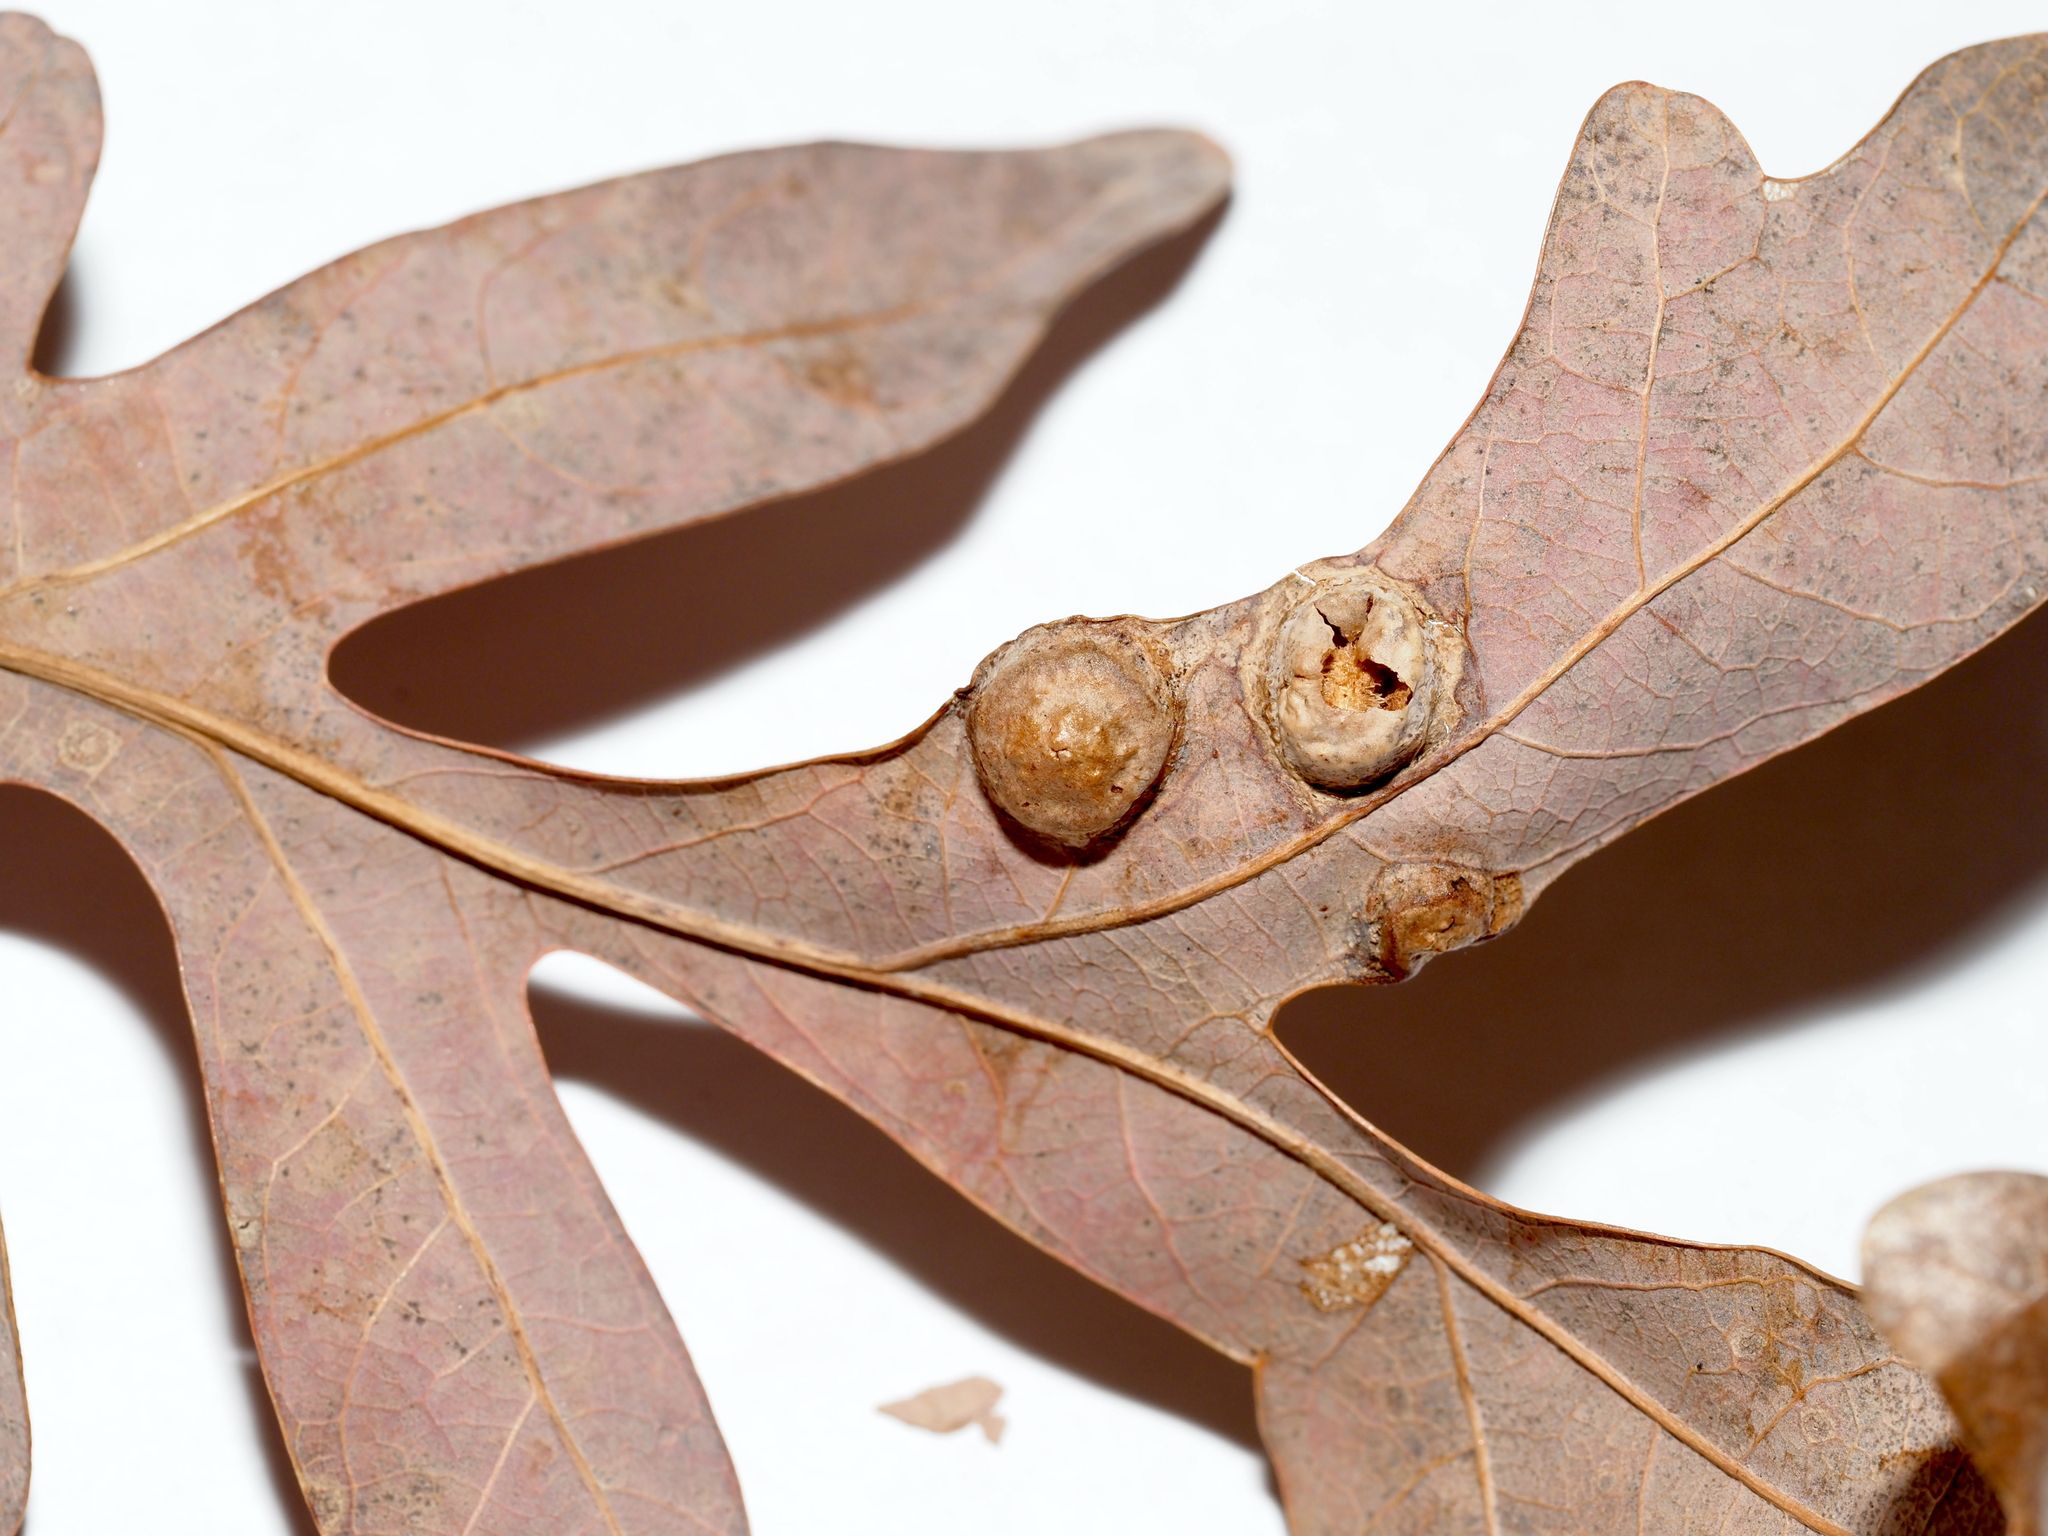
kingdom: Animalia
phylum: Arthropoda
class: Insecta
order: Hymenoptera
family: Cynipidae
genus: Callirhytis
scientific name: Callirhytis
